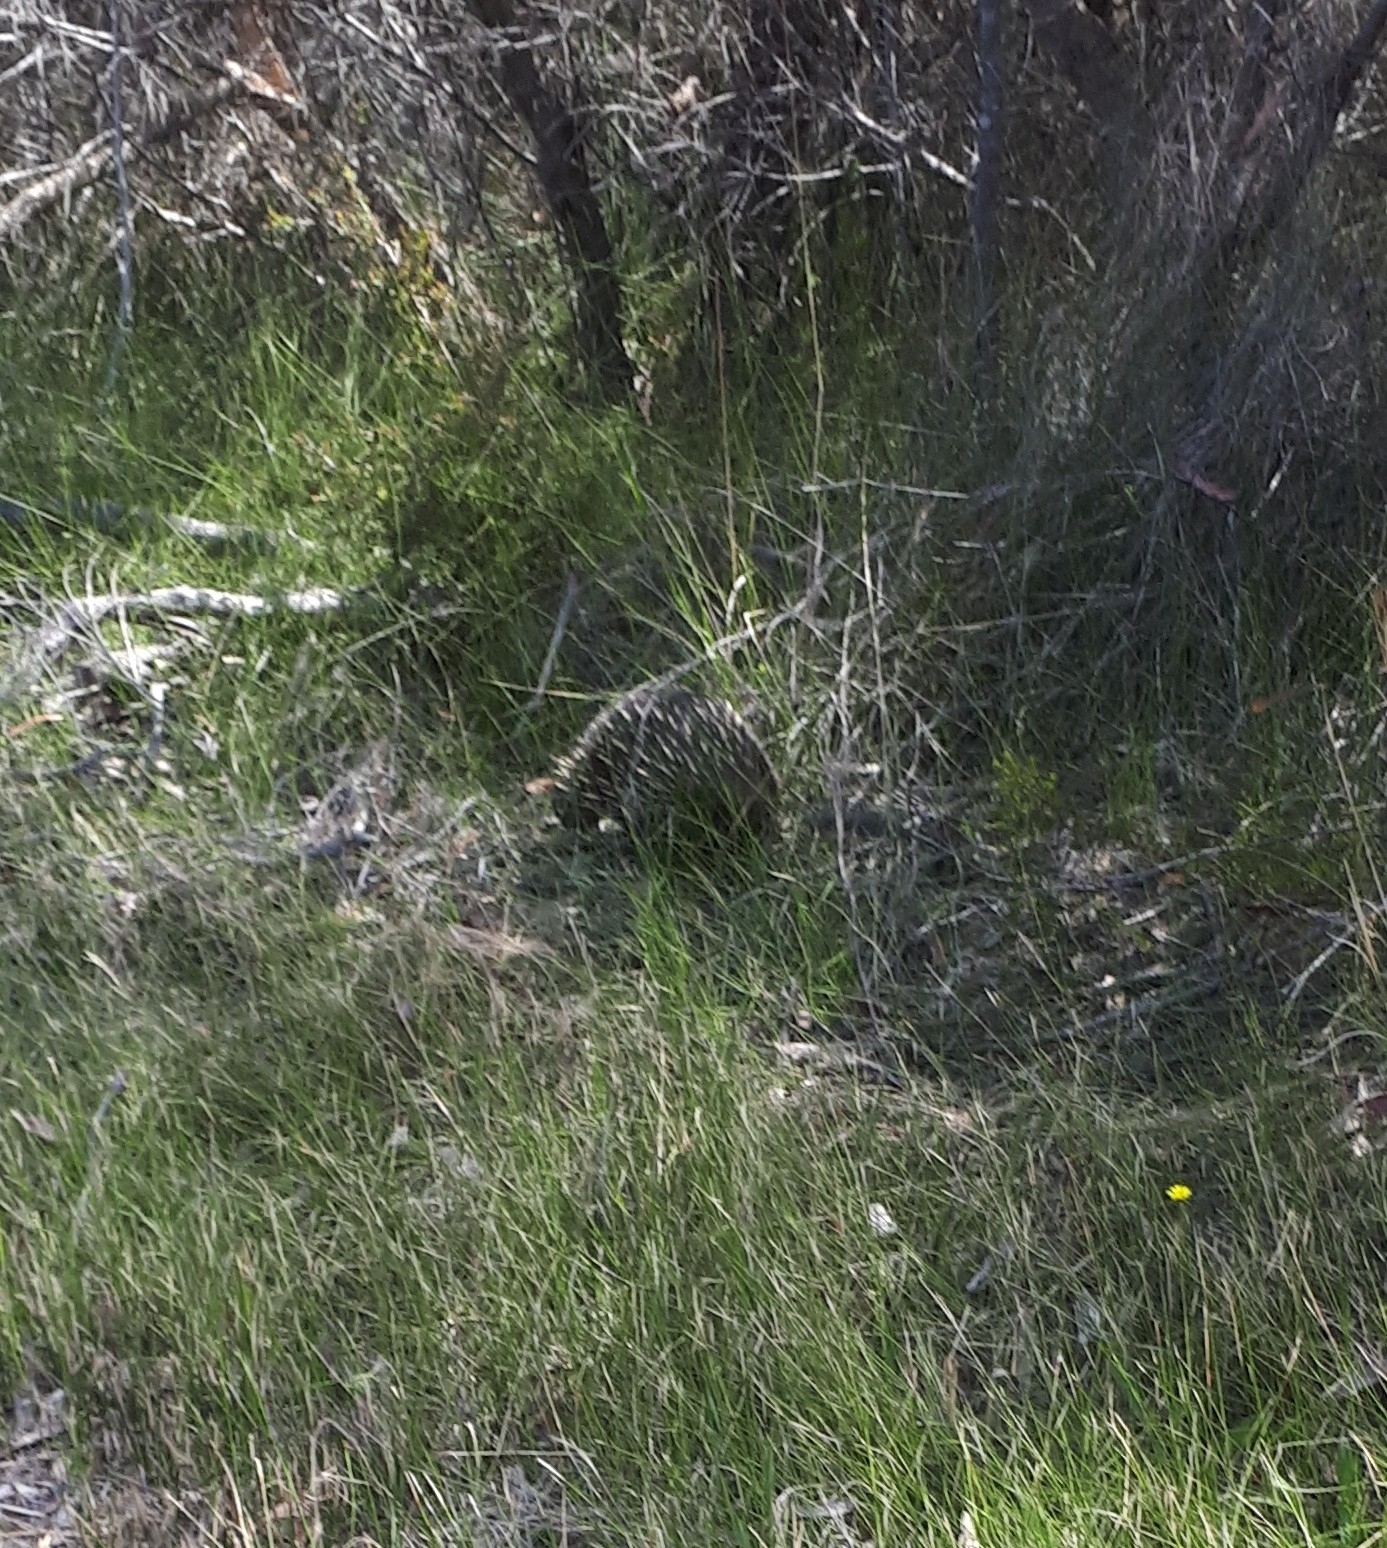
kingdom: Animalia
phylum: Chordata
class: Mammalia
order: Monotremata
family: Tachyglossidae
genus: Tachyglossus
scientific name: Tachyglossus aculeatus
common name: Short-beaked echidna
